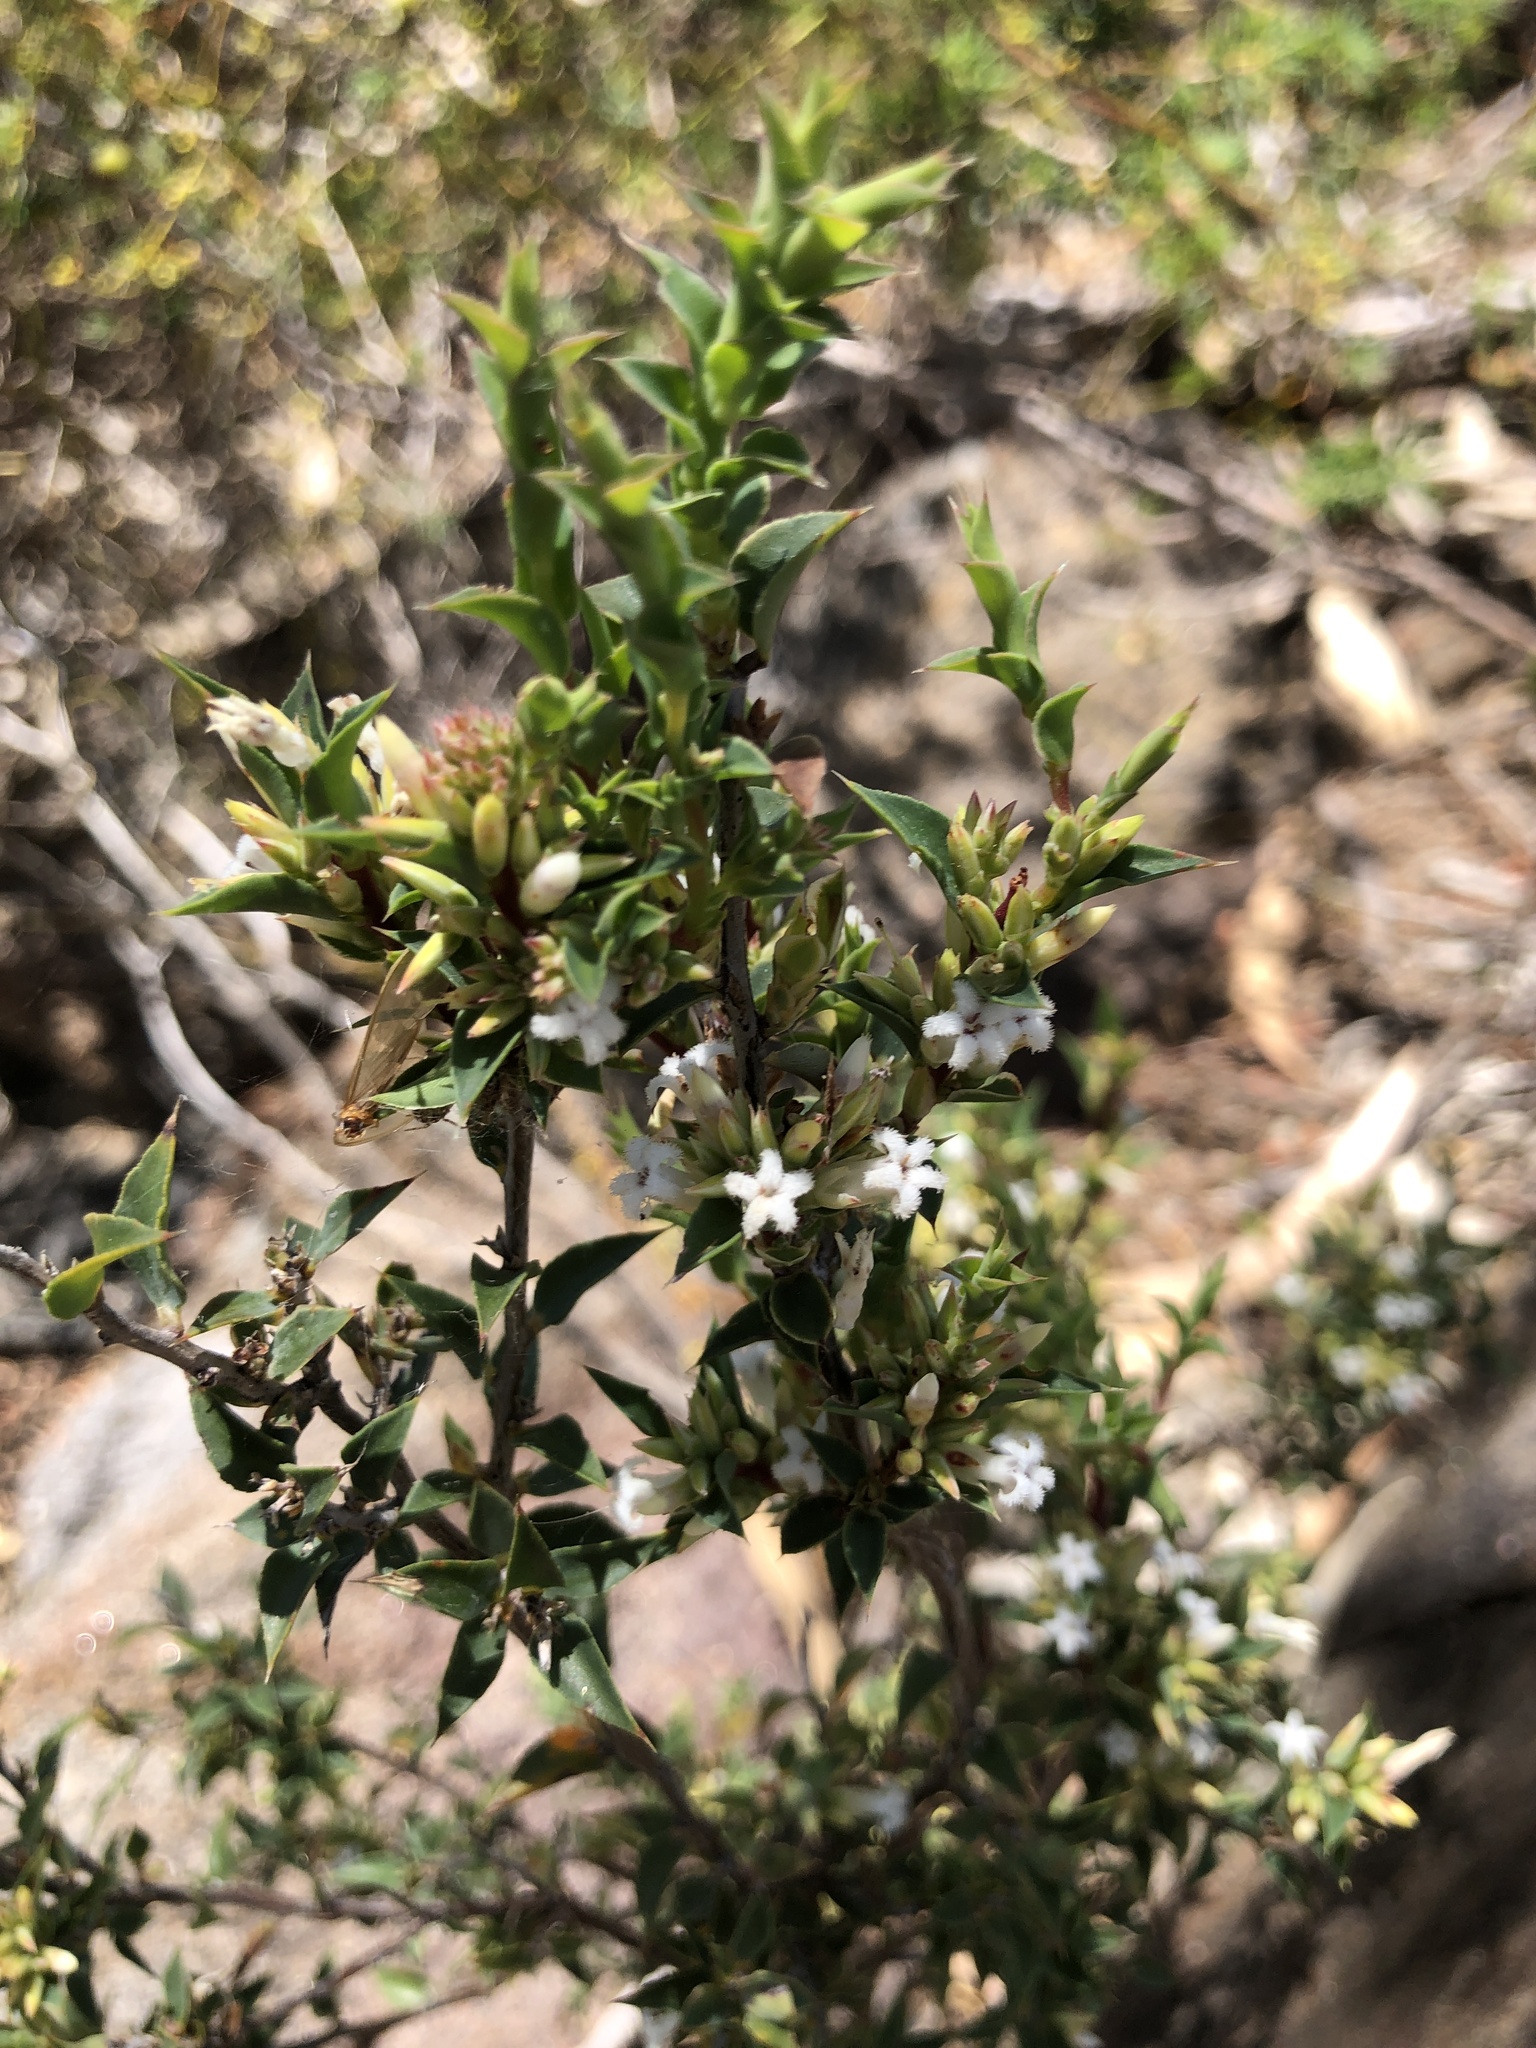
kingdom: Plantae
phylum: Tracheophyta
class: Magnoliopsida
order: Ericales
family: Ericaceae
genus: Styphelia
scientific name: Styphelia rufa
